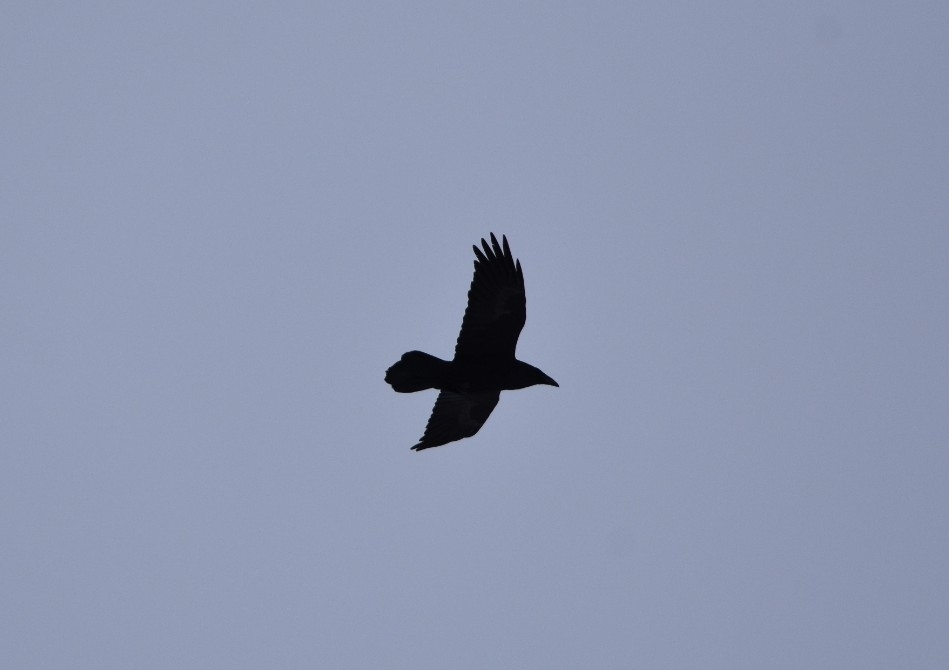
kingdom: Animalia
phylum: Chordata
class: Aves
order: Passeriformes
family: Corvidae
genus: Corvus
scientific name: Corvus corax
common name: Common raven
